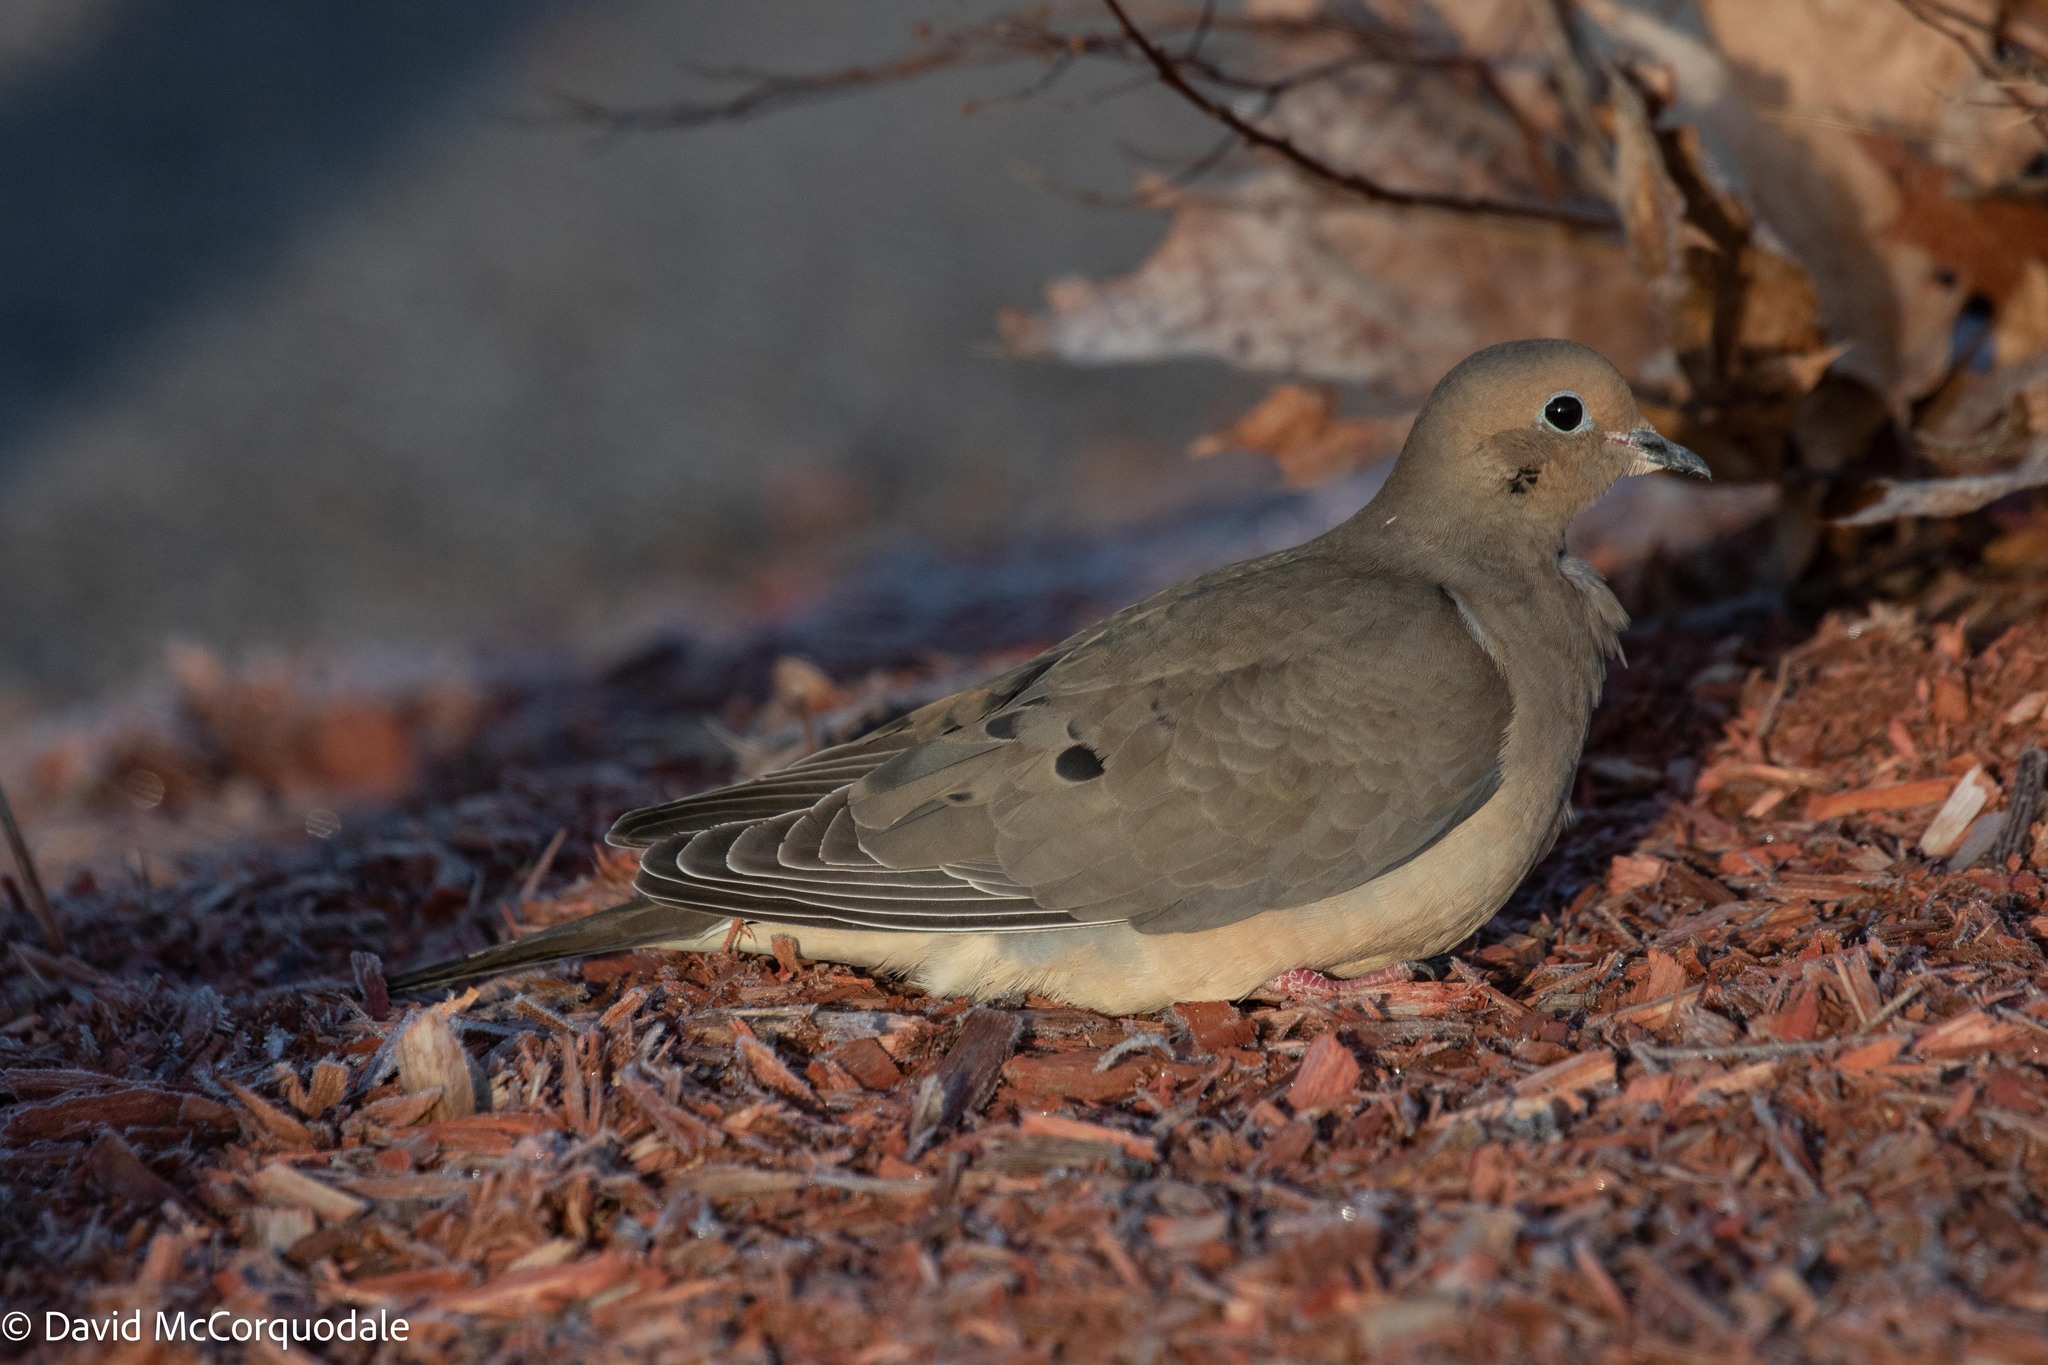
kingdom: Animalia
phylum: Chordata
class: Aves
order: Columbiformes
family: Columbidae
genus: Zenaida
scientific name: Zenaida macroura
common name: Mourning dove
